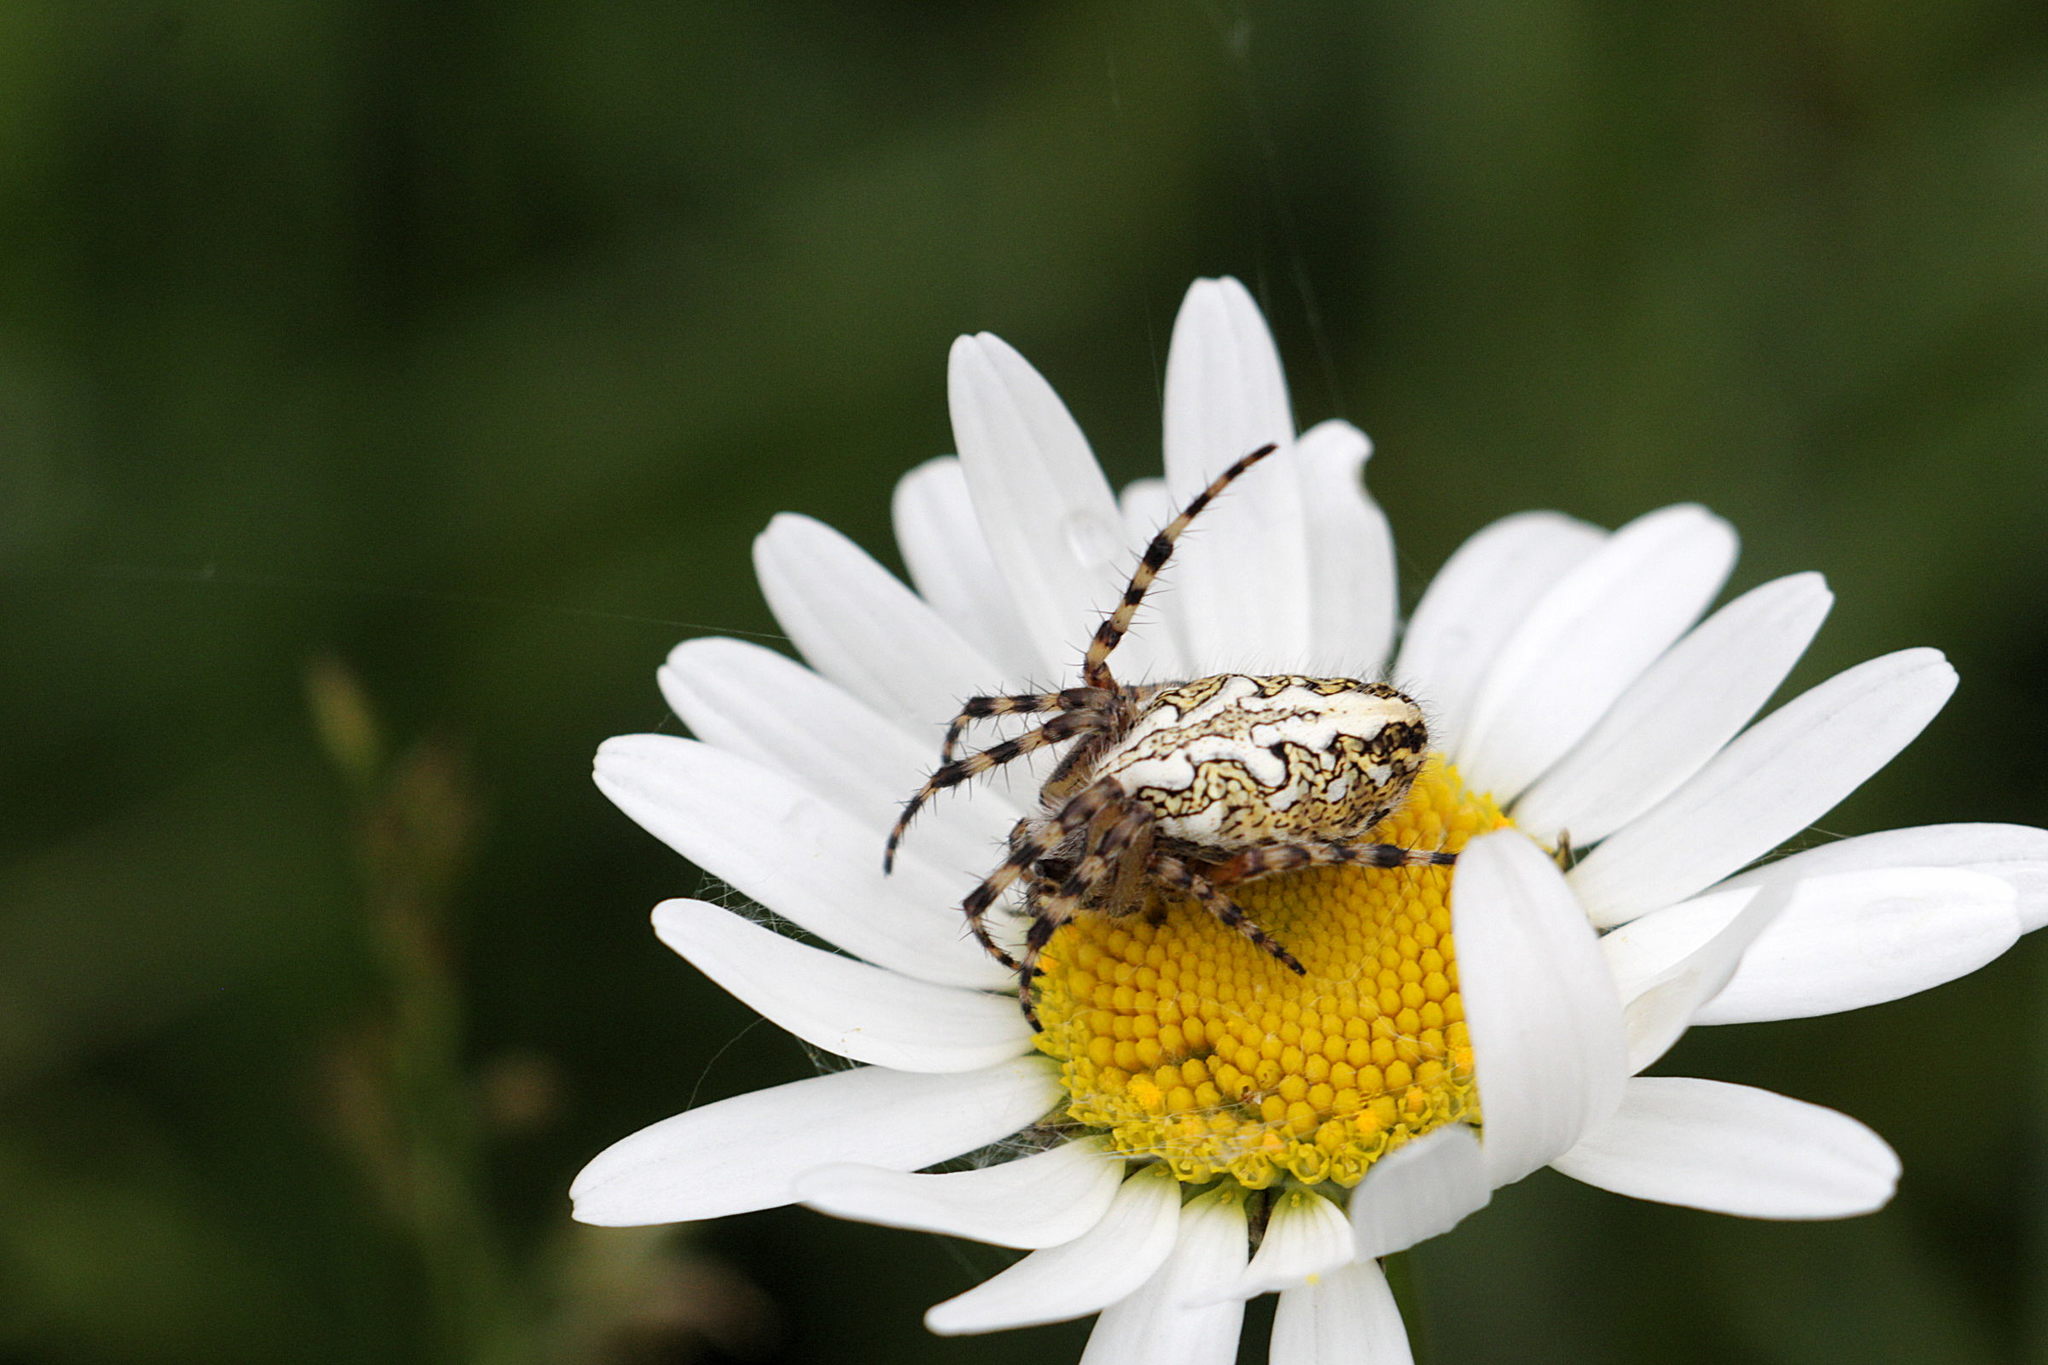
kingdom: Animalia
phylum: Arthropoda
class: Arachnida
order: Araneae
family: Araneidae
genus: Aculepeira
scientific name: Aculepeira ceropegia
